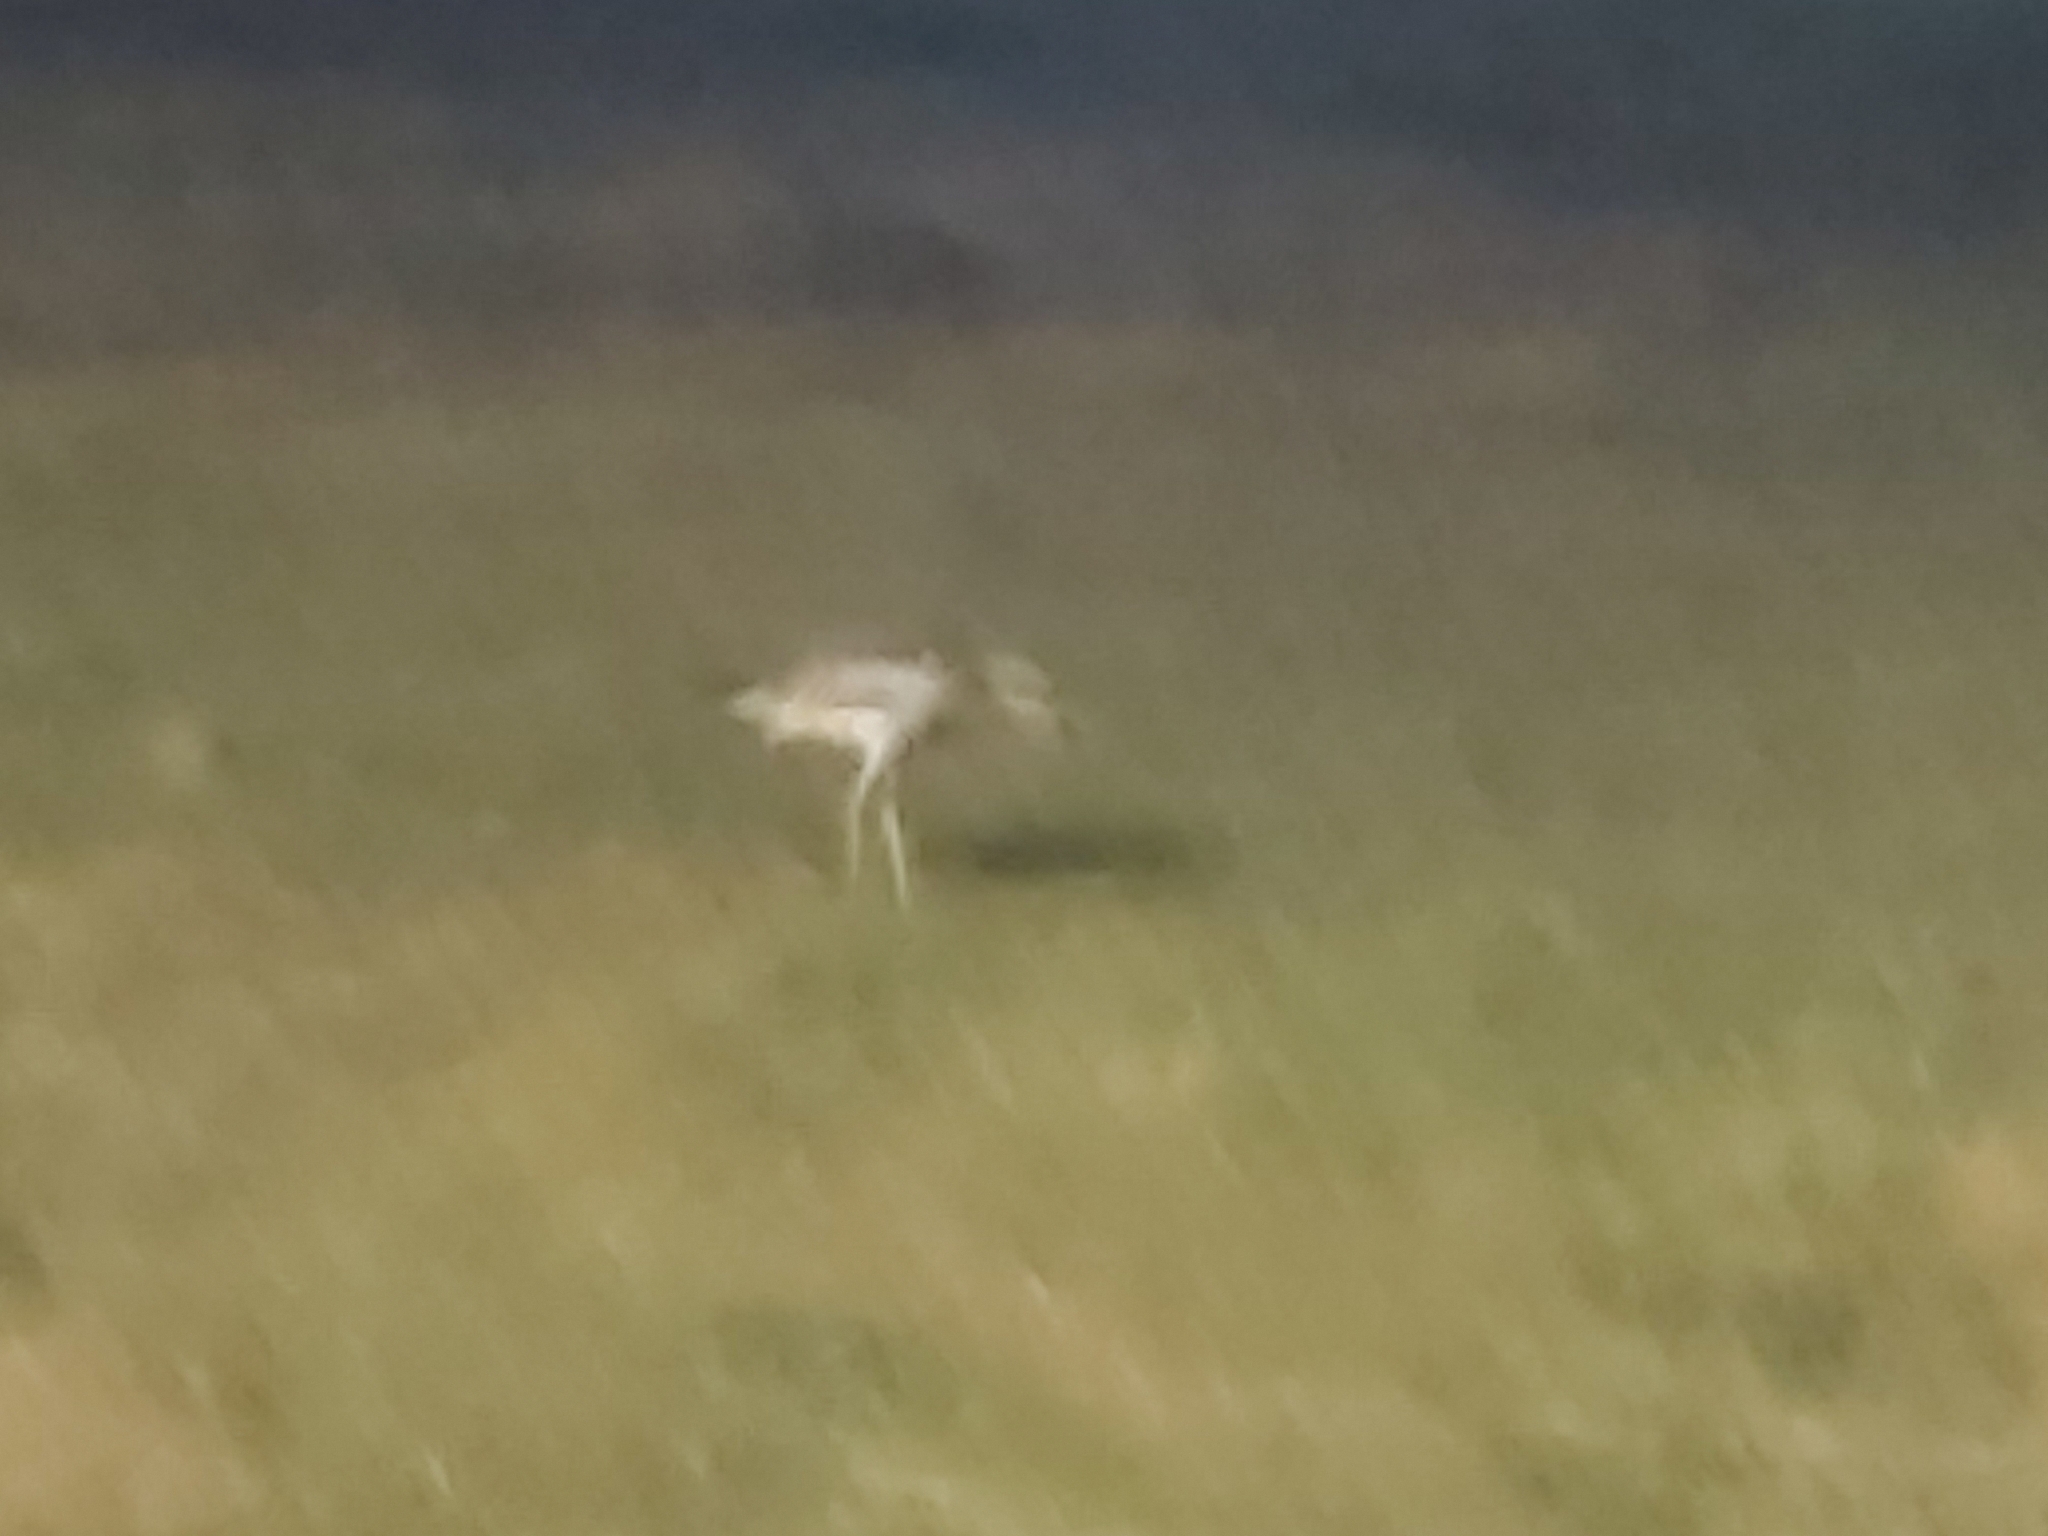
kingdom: Animalia
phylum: Chordata
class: Aves
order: Charadriiformes
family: Burhinidae
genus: Burhinus
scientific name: Burhinus grallarius
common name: Bush stone-curlew
